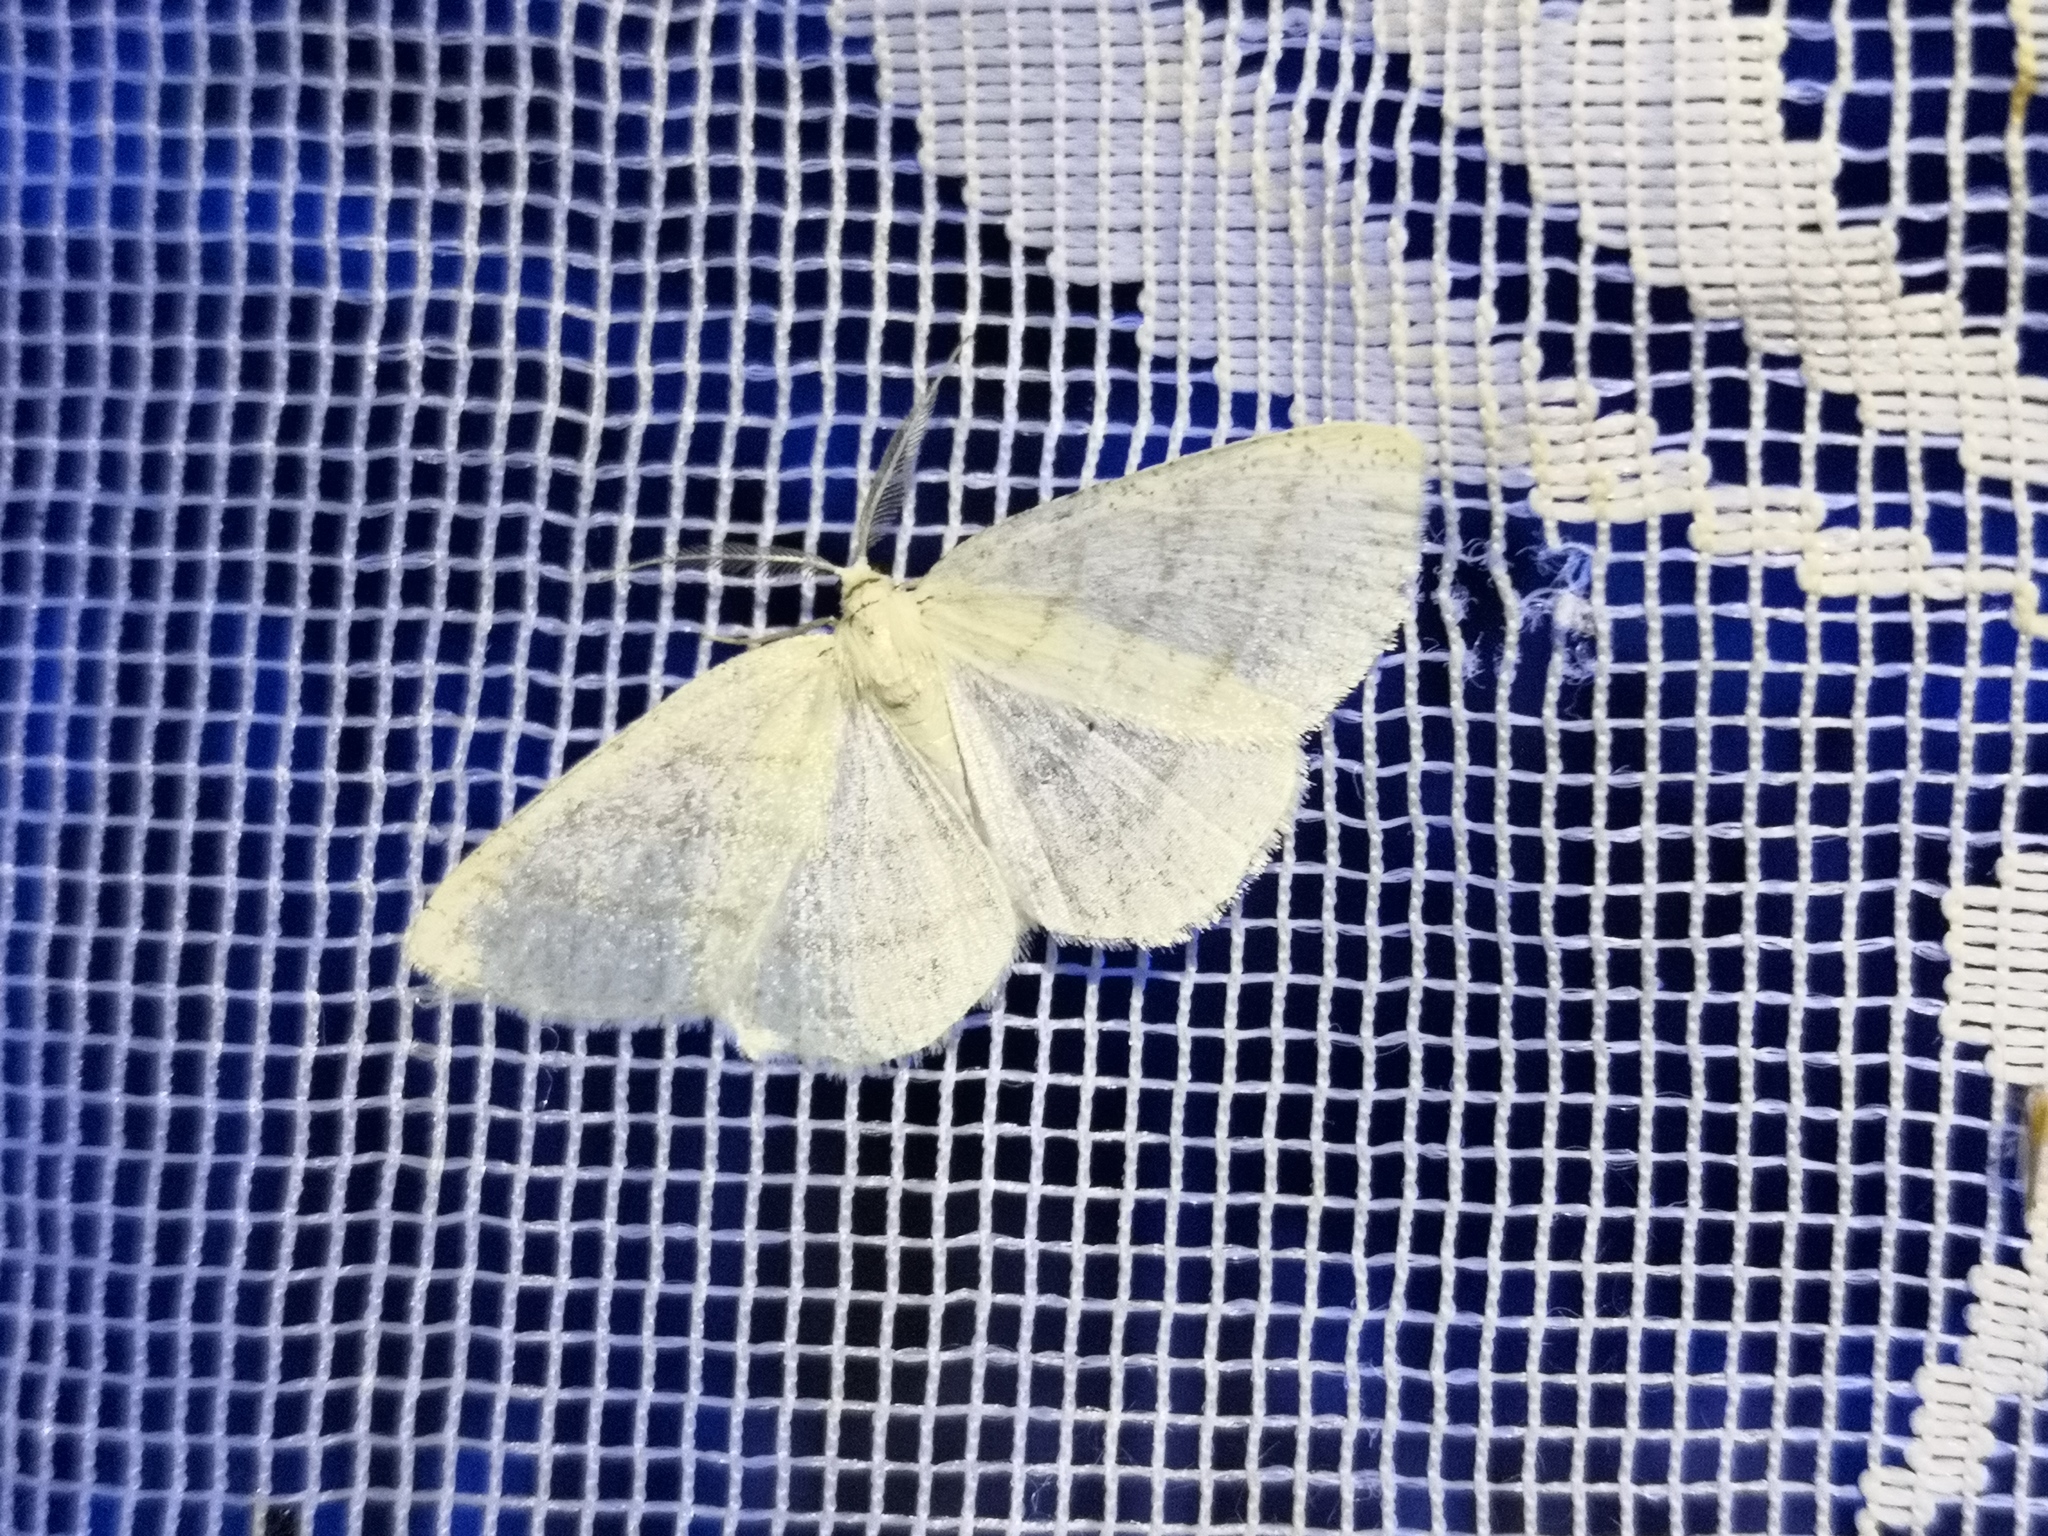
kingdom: Animalia
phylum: Arthropoda
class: Insecta
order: Lepidoptera
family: Geometridae
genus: Cabera
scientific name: Cabera pusaria
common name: Common white wave
